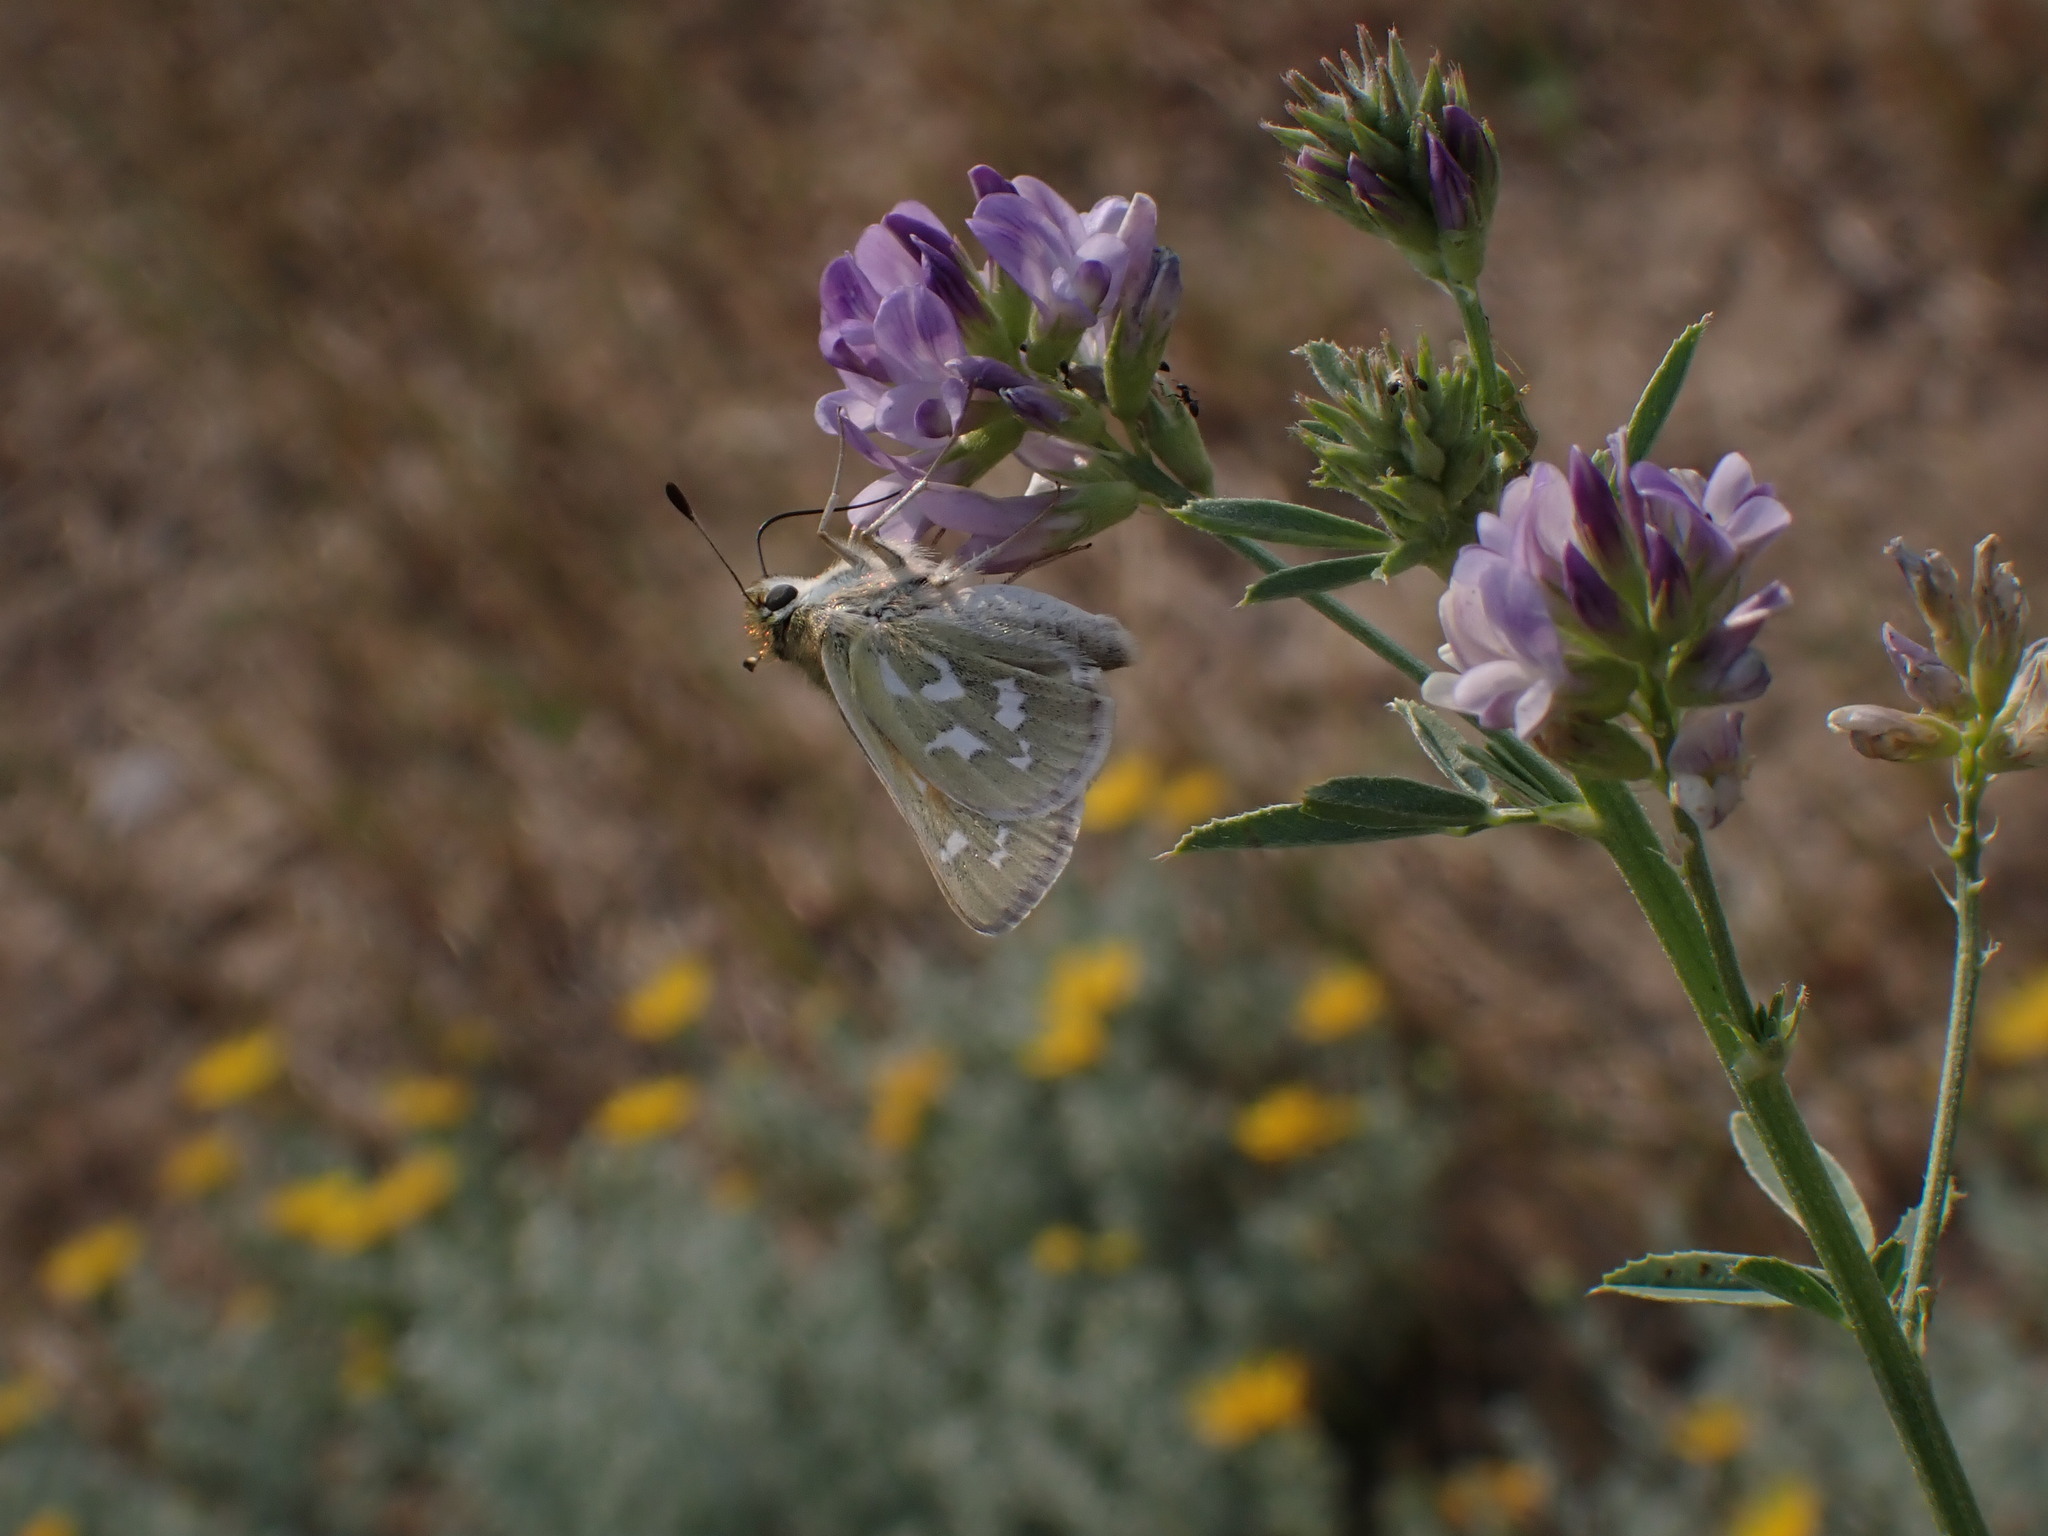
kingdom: Animalia
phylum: Arthropoda
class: Insecta
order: Lepidoptera
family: Hesperiidae
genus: Hesperia
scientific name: Hesperia comma
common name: Common branded skipper
